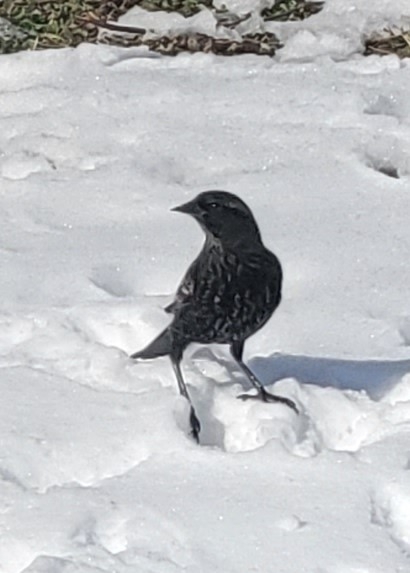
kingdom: Animalia
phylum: Chordata
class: Aves
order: Passeriformes
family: Icteridae
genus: Agelaius
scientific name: Agelaius phoeniceus
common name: Red-winged blackbird
